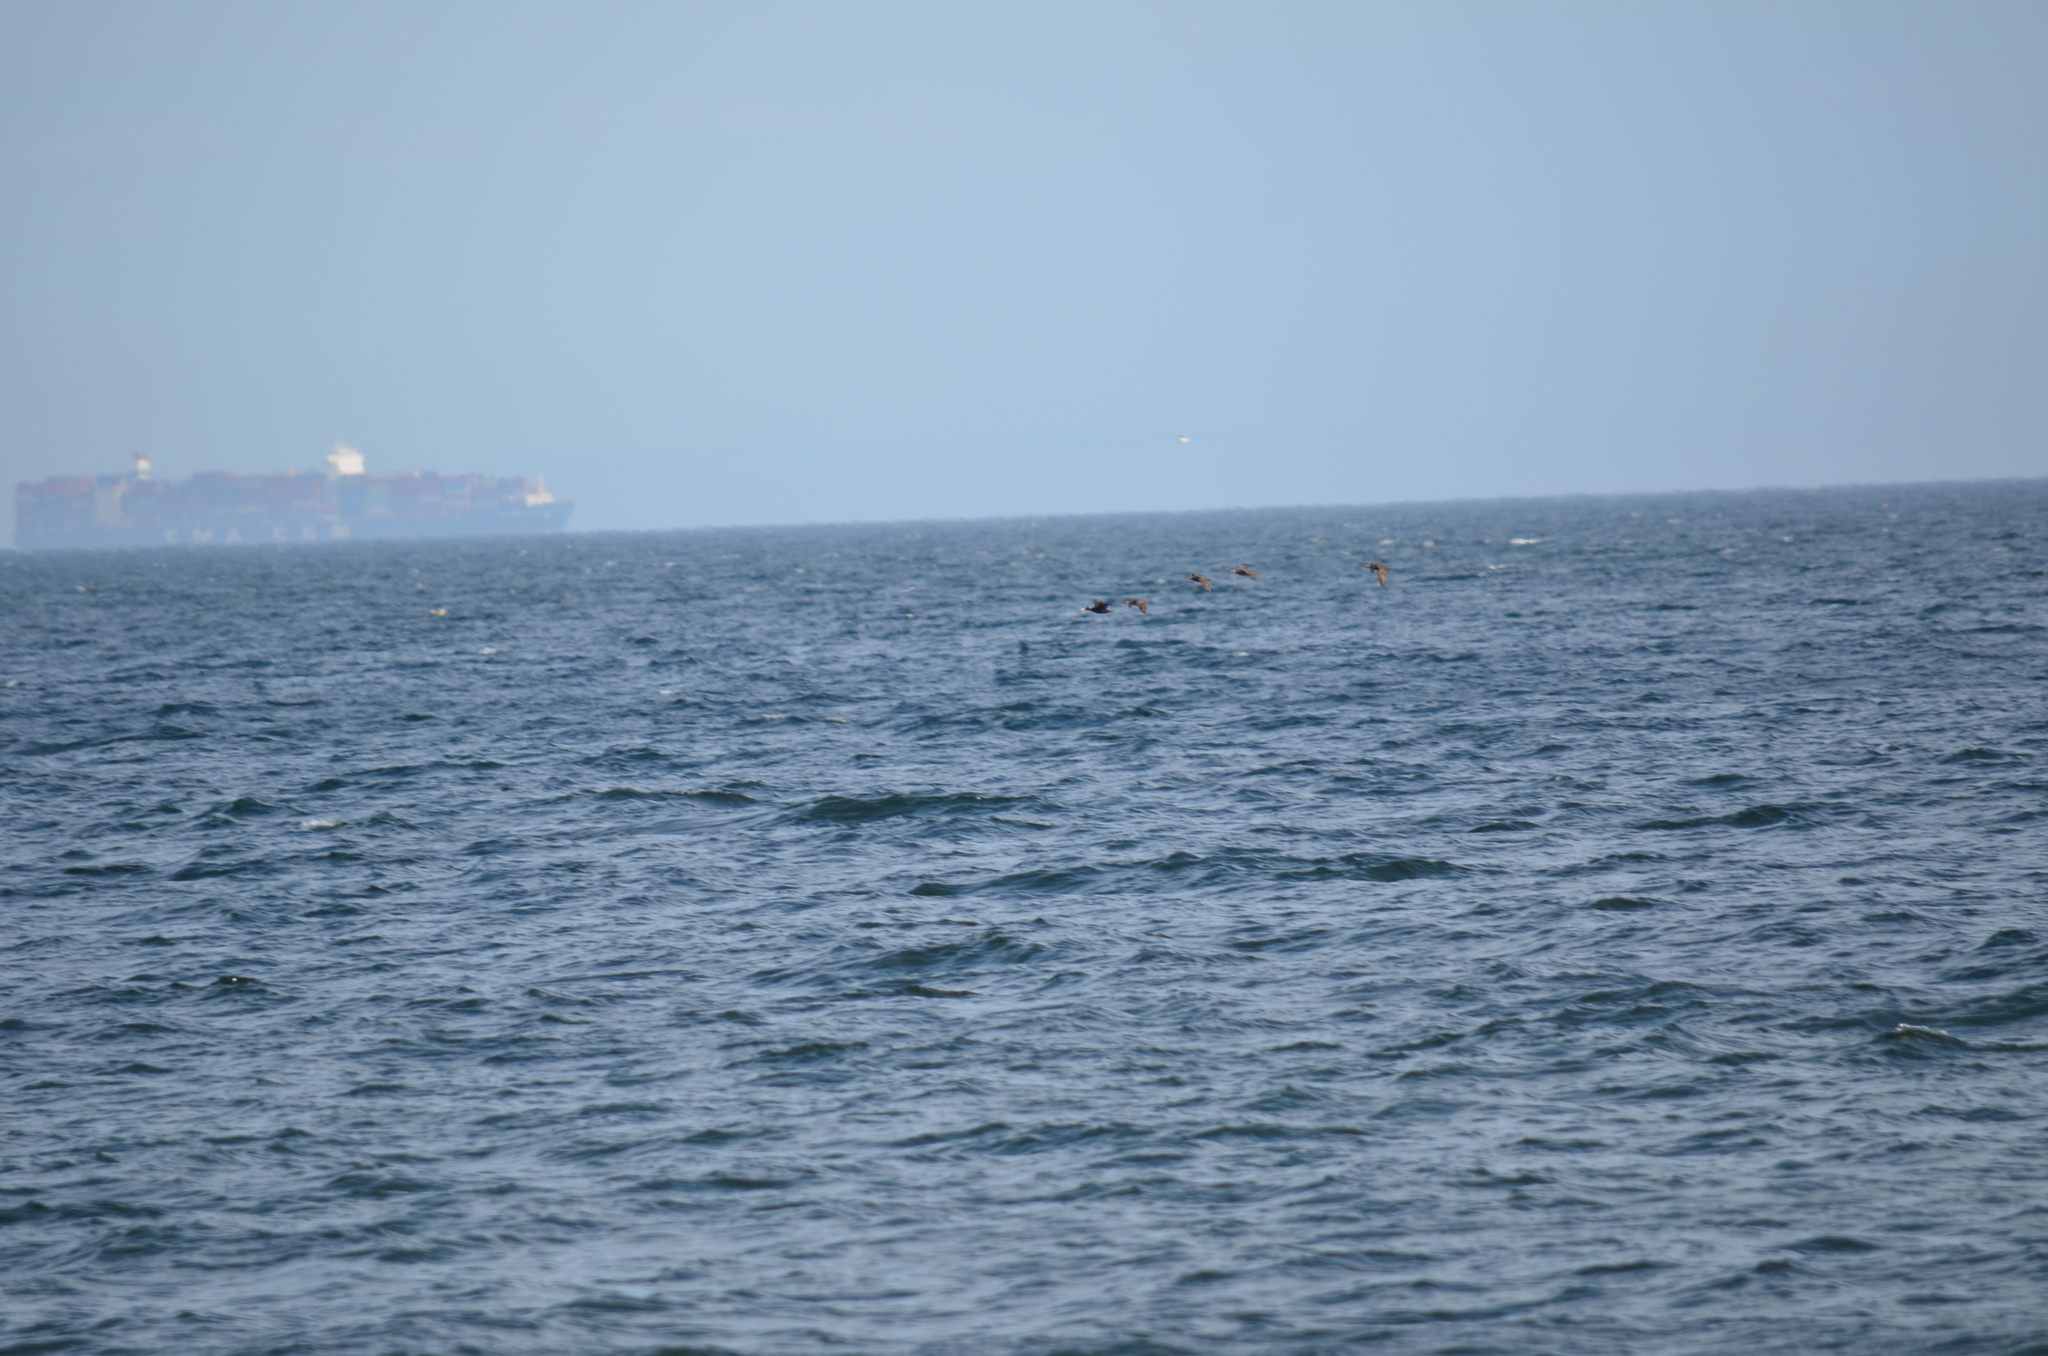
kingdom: Animalia
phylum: Chordata
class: Aves
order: Anseriformes
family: Anatidae
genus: Melanitta
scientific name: Melanitta perspicillata
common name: Surf scoter
